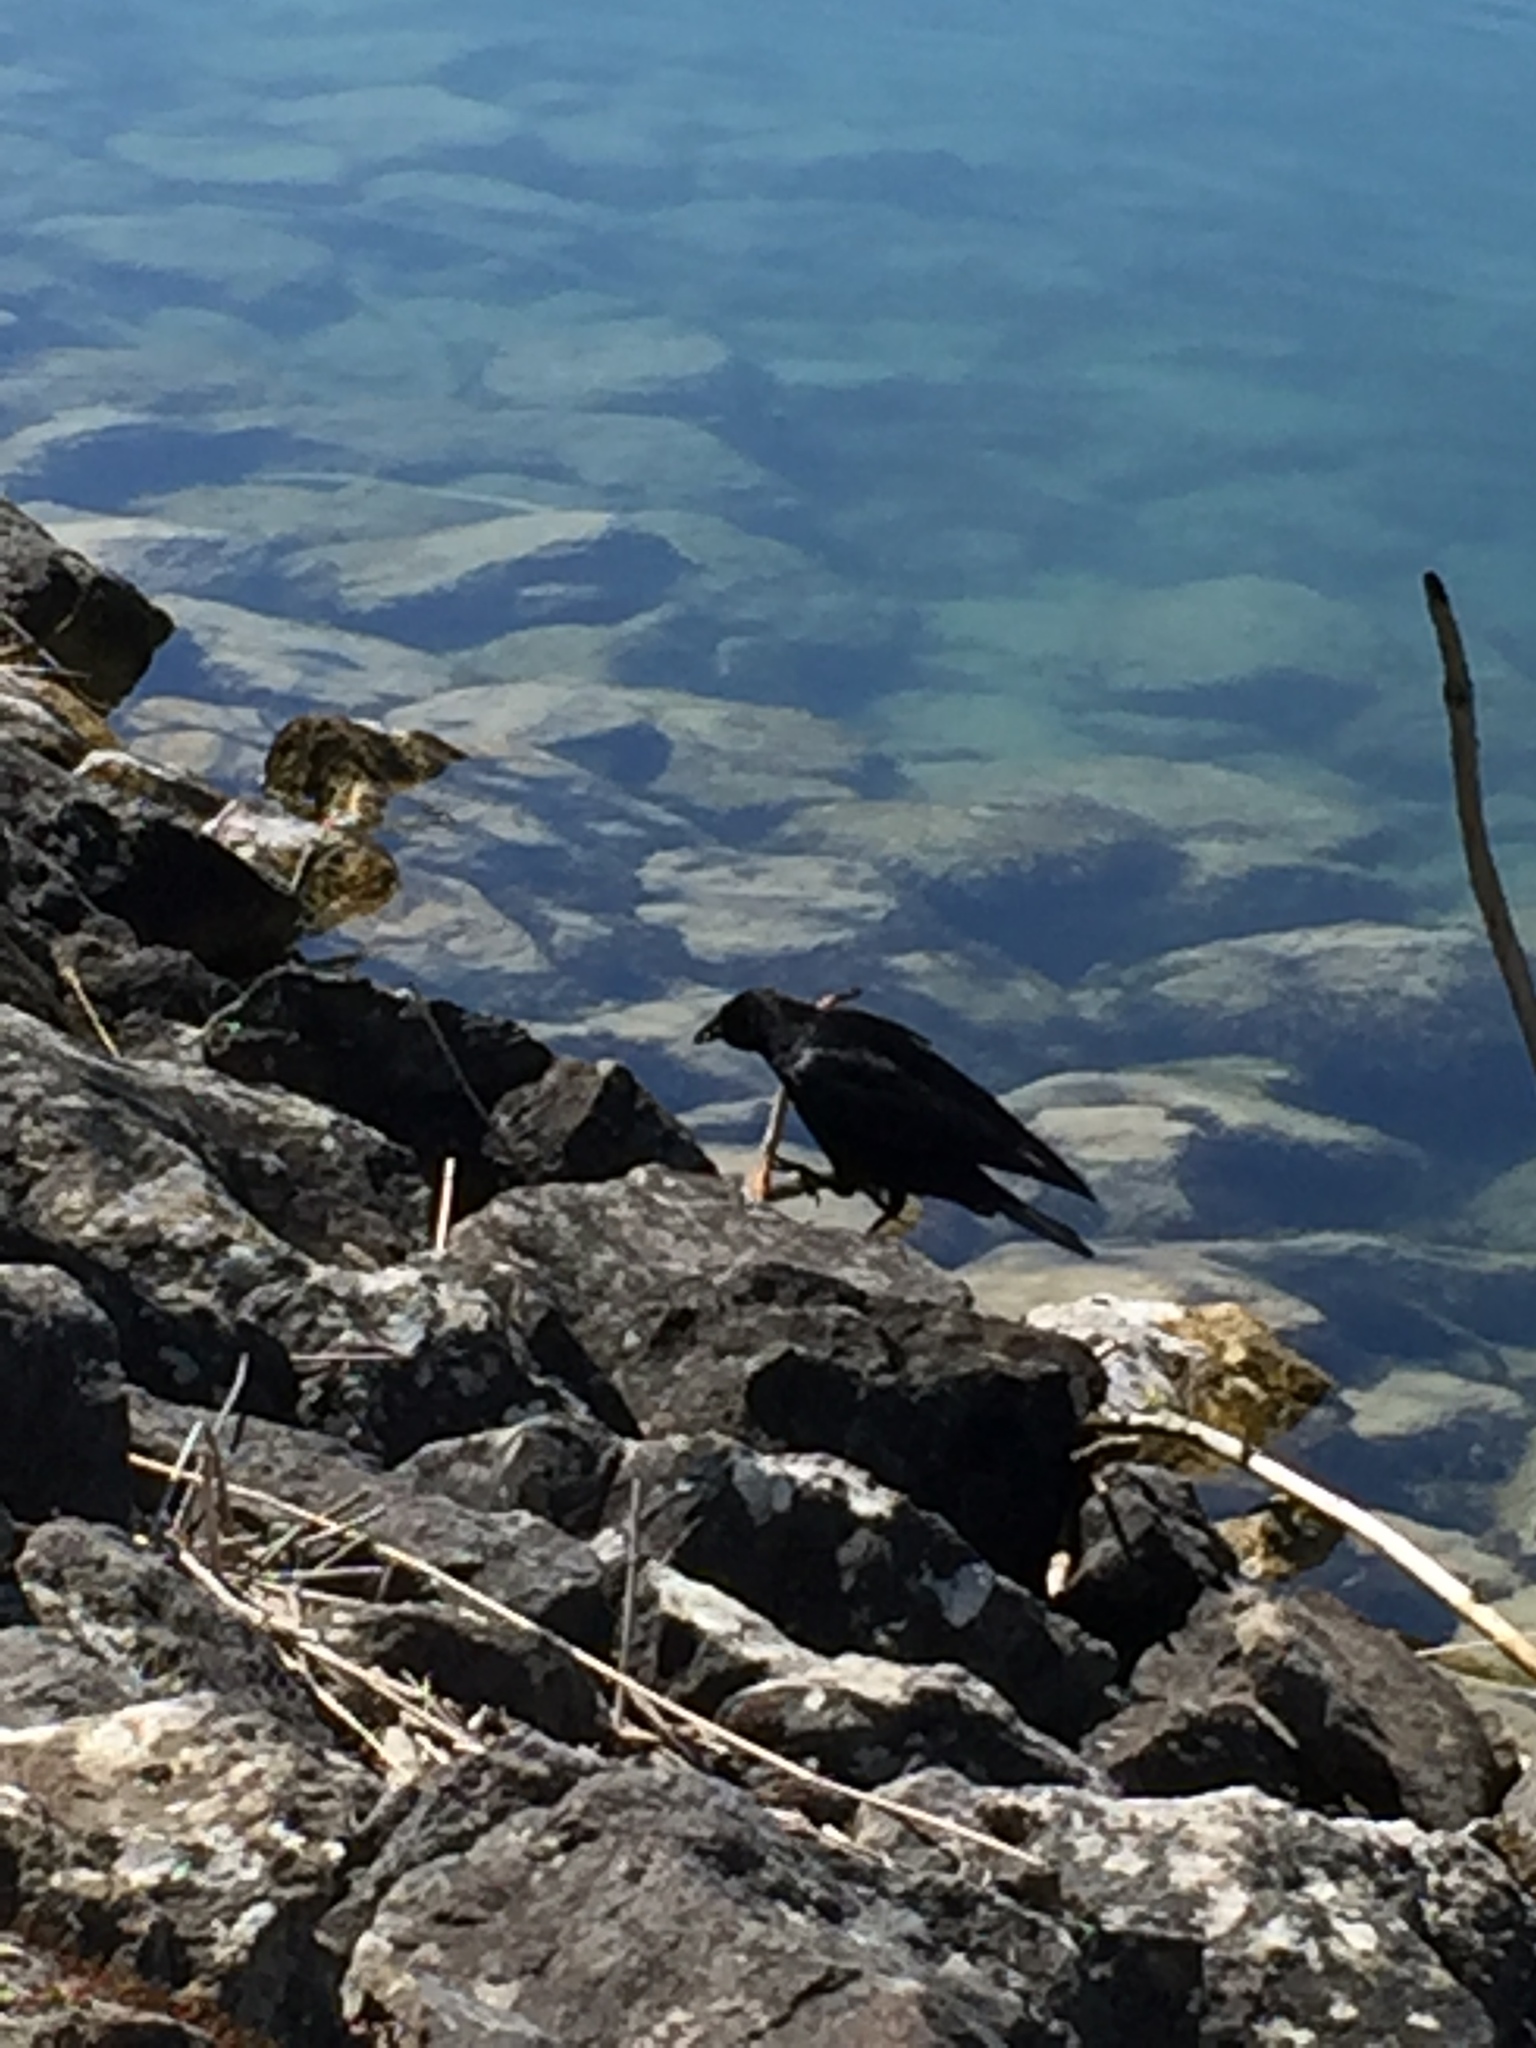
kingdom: Animalia
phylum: Chordata
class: Aves
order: Passeriformes
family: Corvidae
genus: Corvus
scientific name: Corvus corone
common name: Carrion crow
